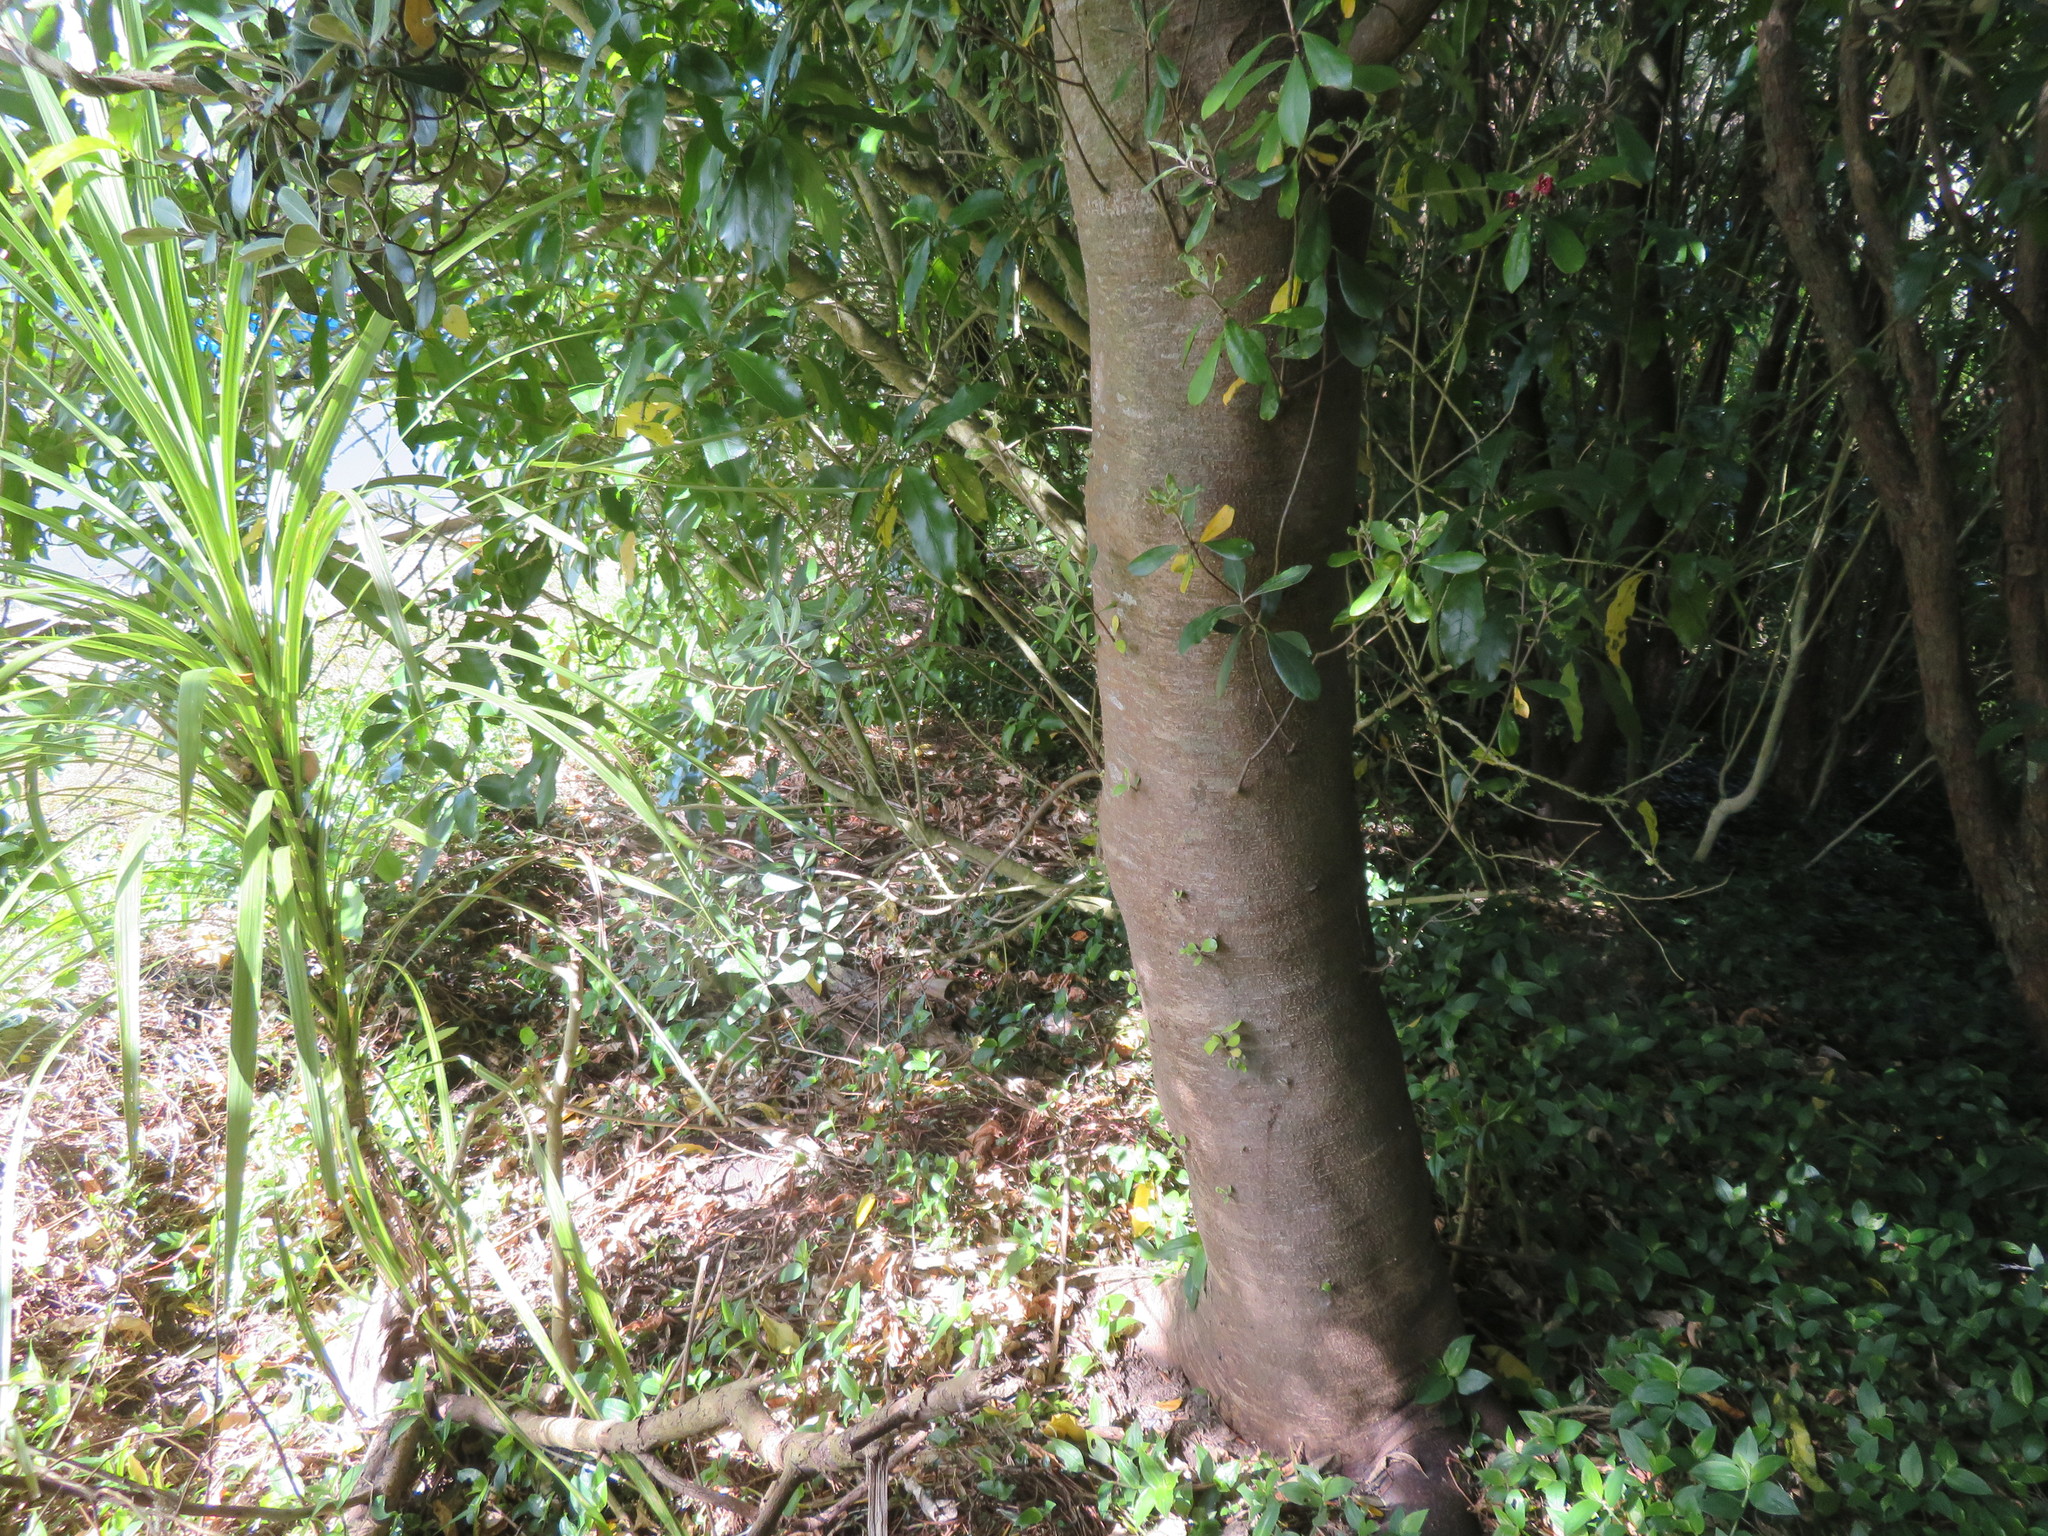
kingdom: Plantae
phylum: Tracheophyta
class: Liliopsida
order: Commelinales
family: Commelinaceae
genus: Tradescantia
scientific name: Tradescantia fluminensis
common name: Wandering-jew
